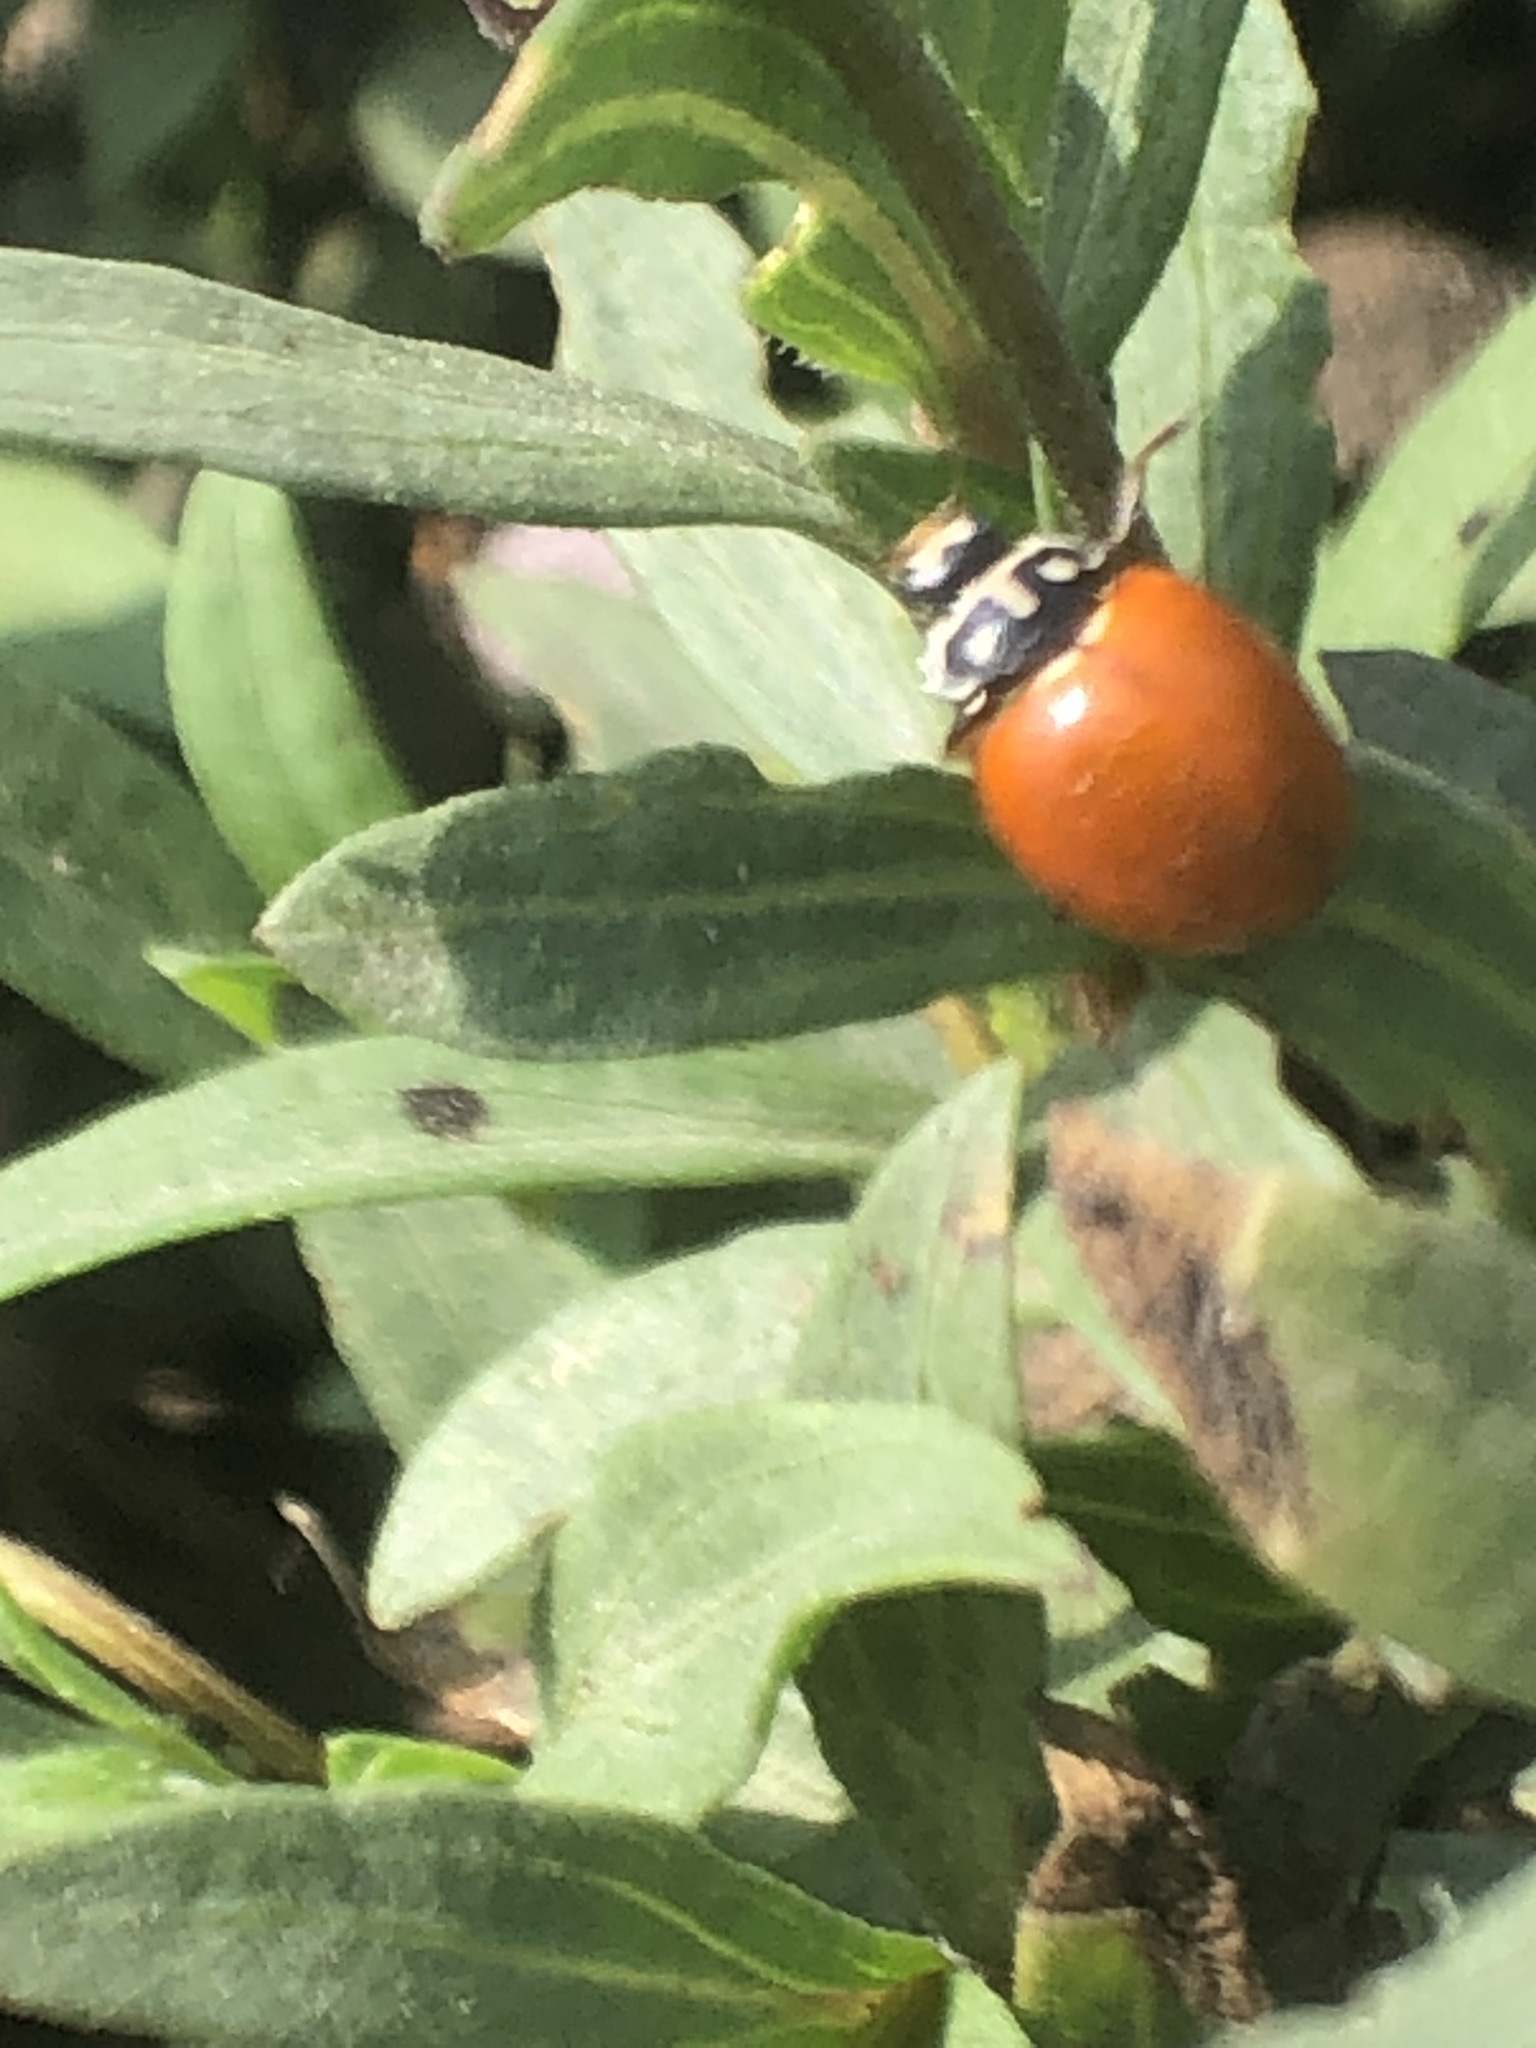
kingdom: Animalia
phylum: Arthropoda
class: Insecta
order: Coleoptera
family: Coccinellidae
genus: Cycloneda
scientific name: Cycloneda sanguinea
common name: Ladybird beetle
